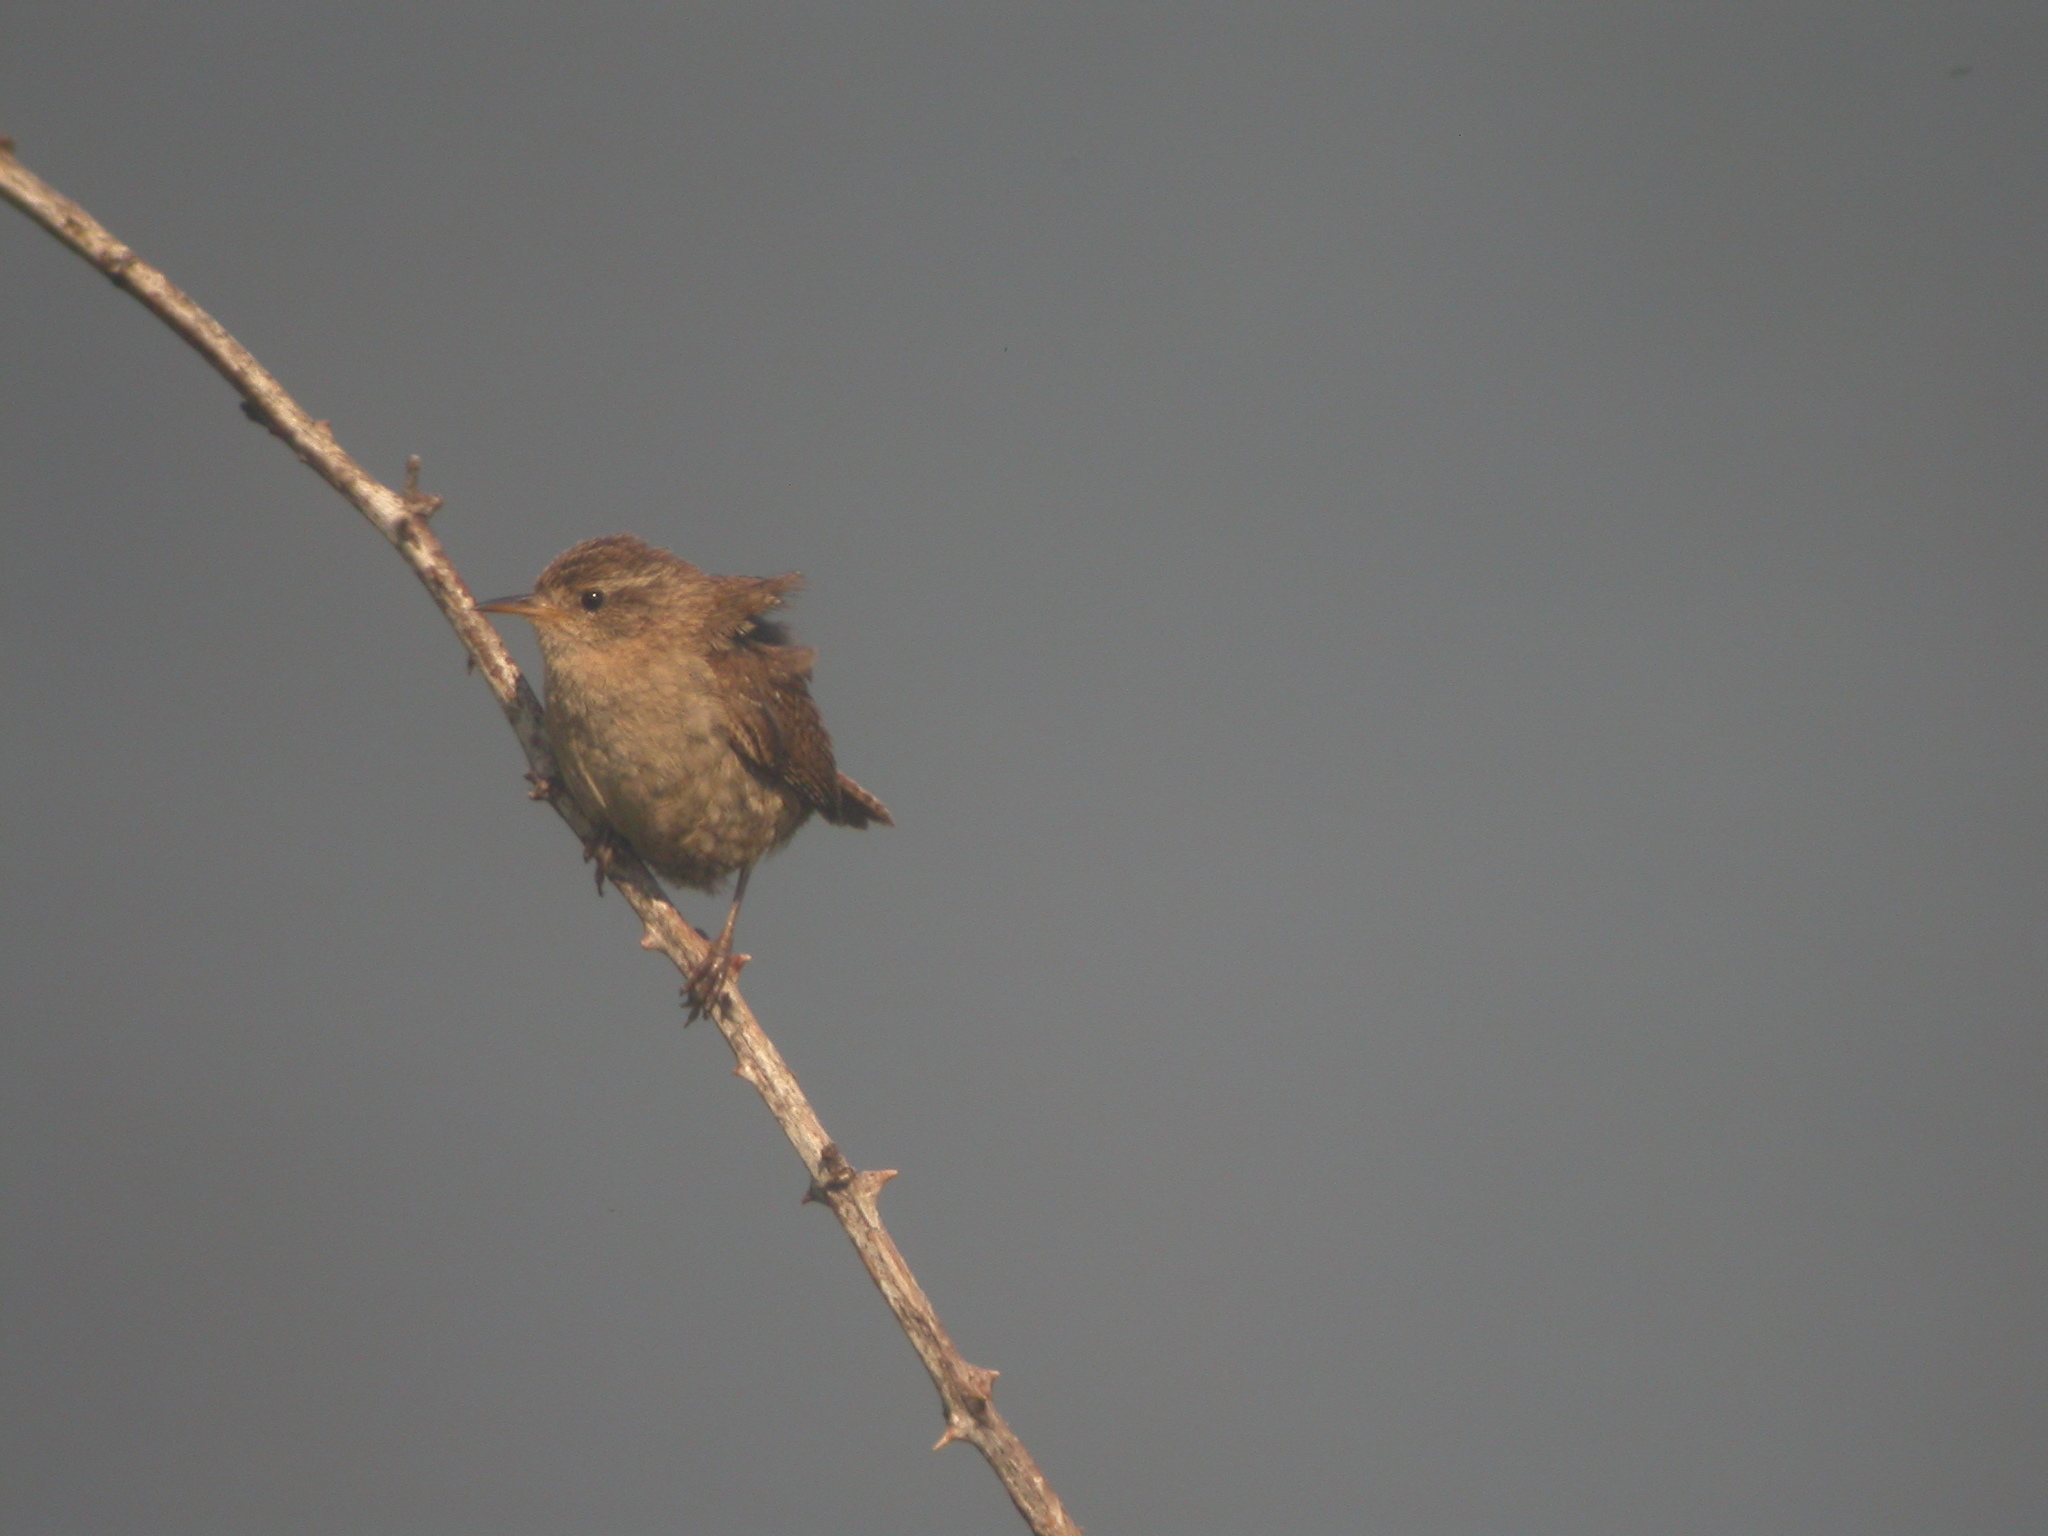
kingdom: Animalia
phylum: Chordata
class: Aves
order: Passeriformes
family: Troglodytidae
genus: Troglodytes
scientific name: Troglodytes troglodytes
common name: Eurasian wren
